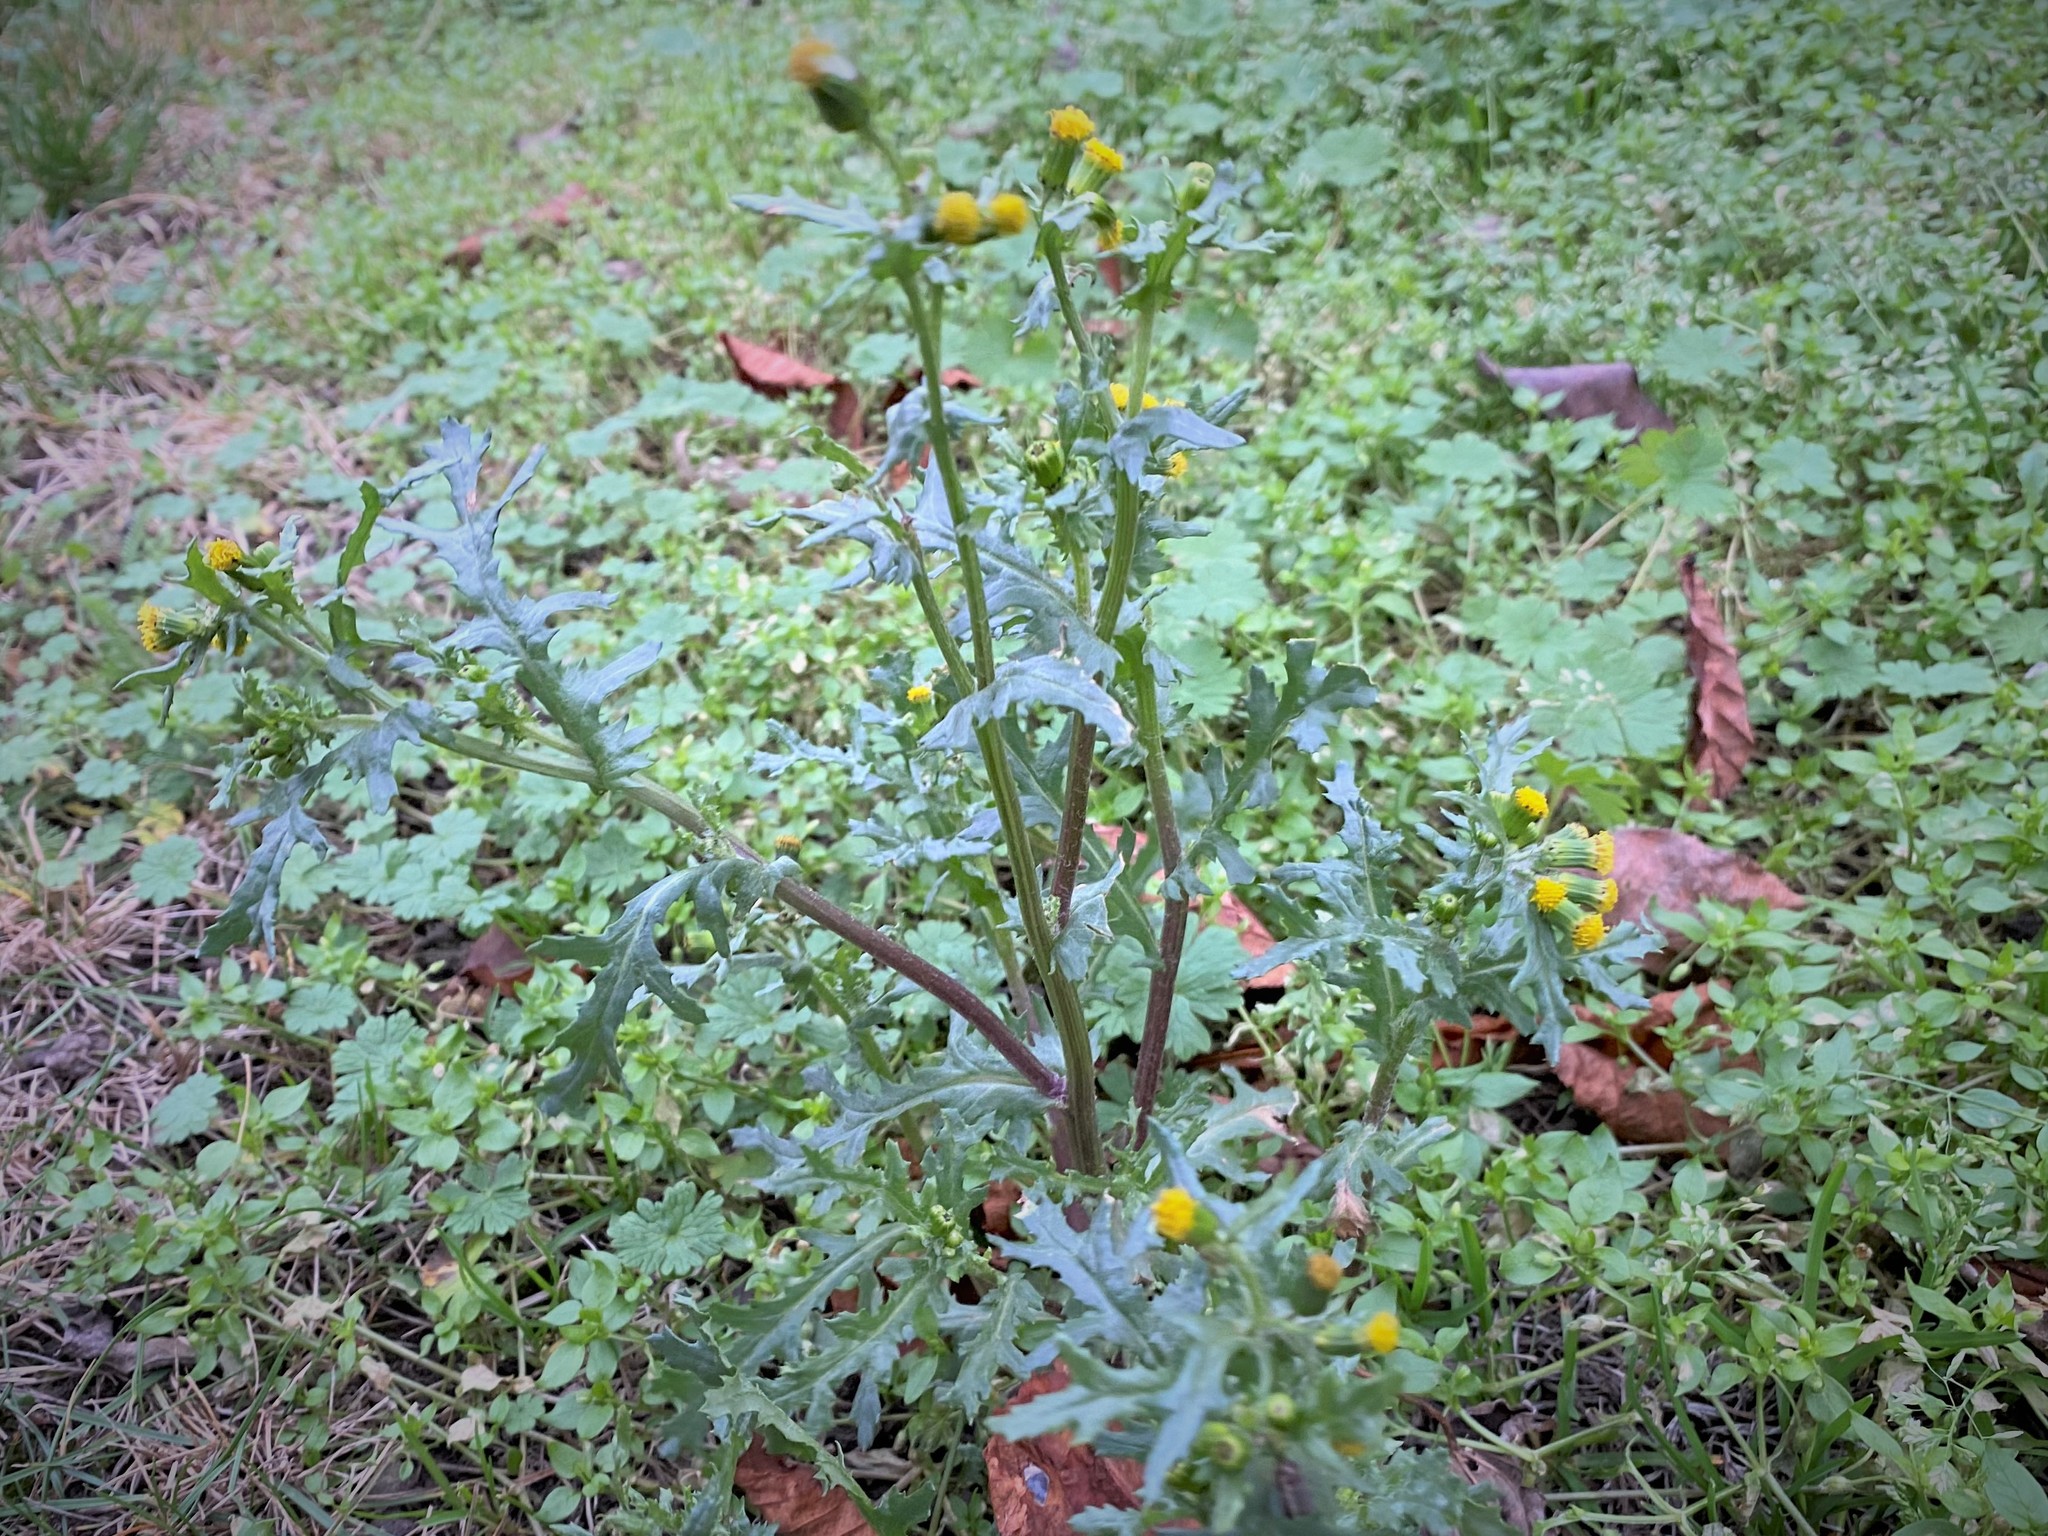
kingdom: Plantae
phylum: Tracheophyta
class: Magnoliopsida
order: Asterales
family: Asteraceae
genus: Senecio
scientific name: Senecio vulgaris
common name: Old-man-in-the-spring
